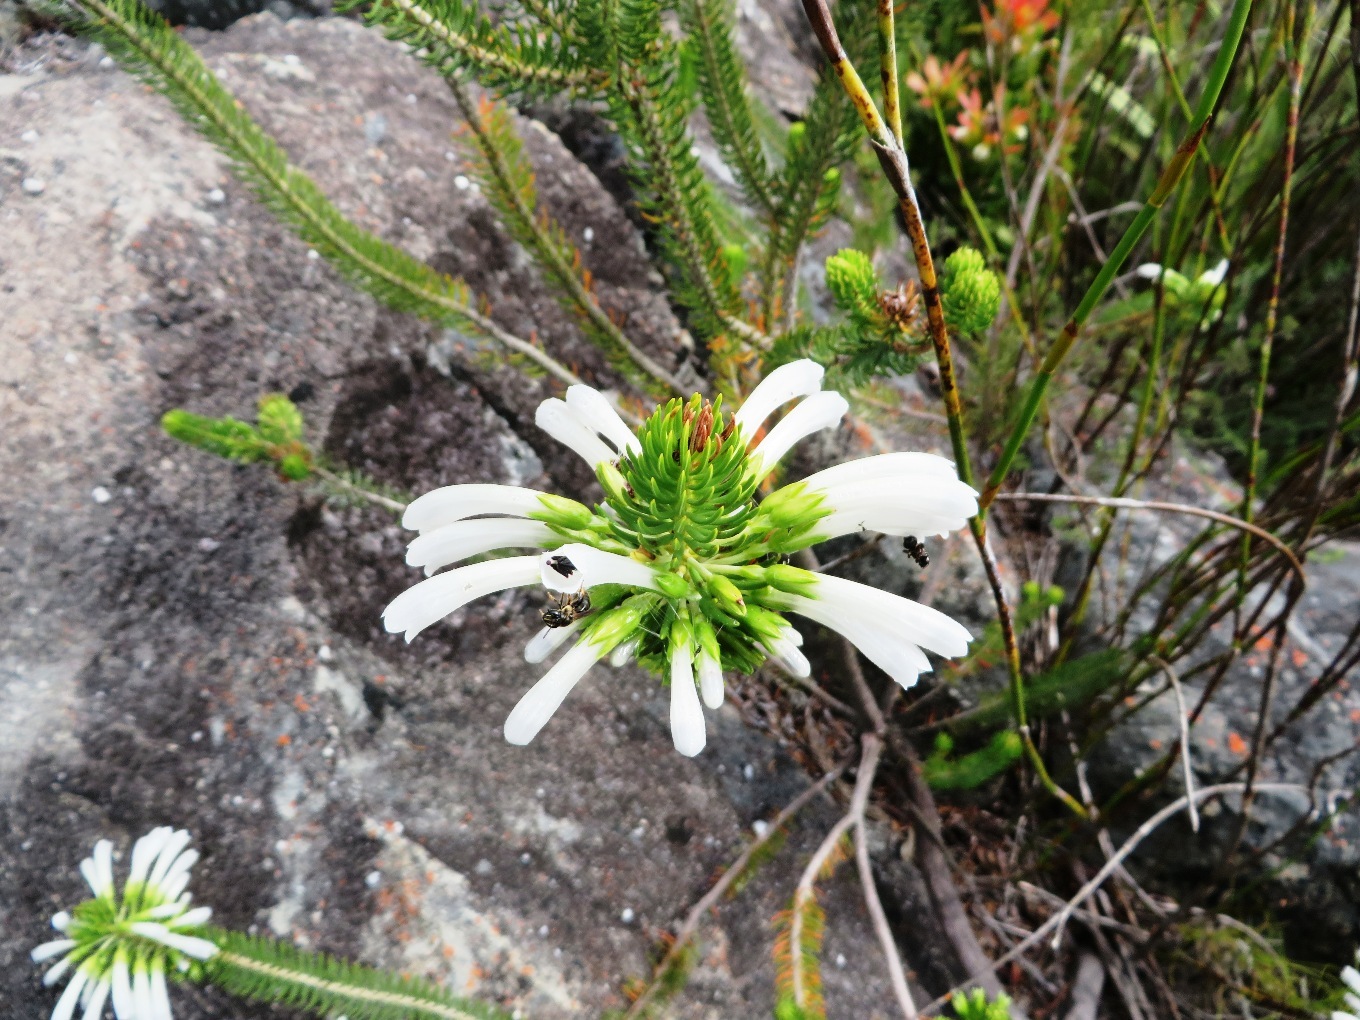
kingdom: Plantae
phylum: Tracheophyta
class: Magnoliopsida
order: Ericales
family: Ericaceae
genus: Erica
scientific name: Erica thomae
